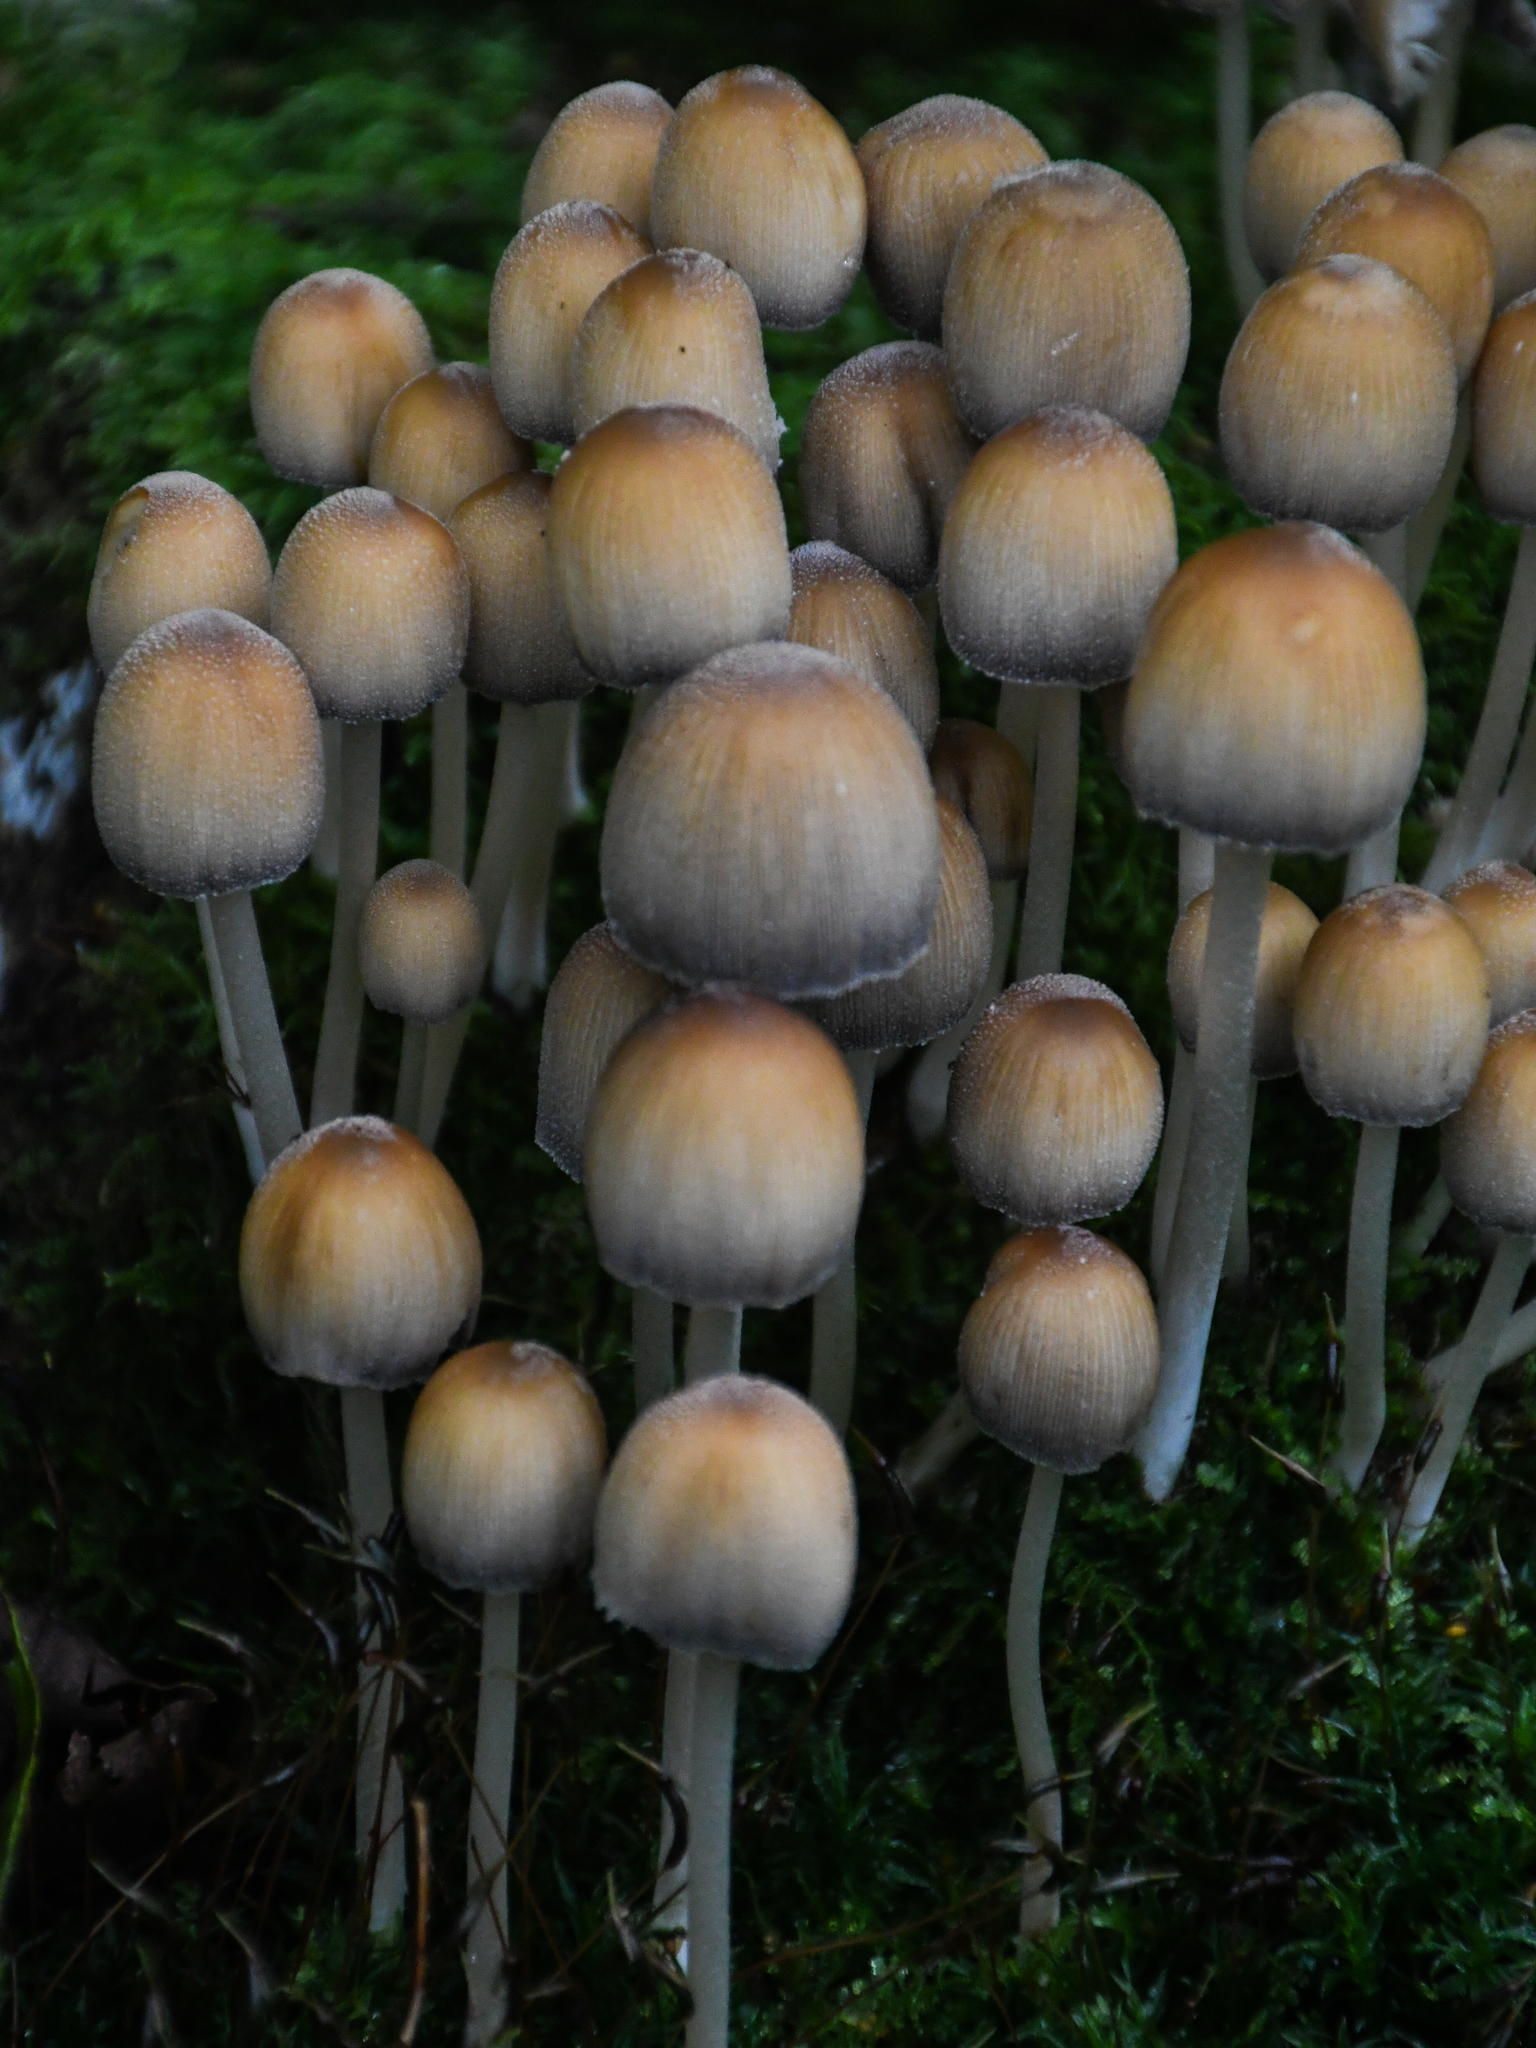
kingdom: Fungi
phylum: Basidiomycota
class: Agaricomycetes
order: Agaricales
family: Psathyrellaceae
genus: Coprinellus
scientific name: Coprinellus micaceus
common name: Glistening ink-cap
